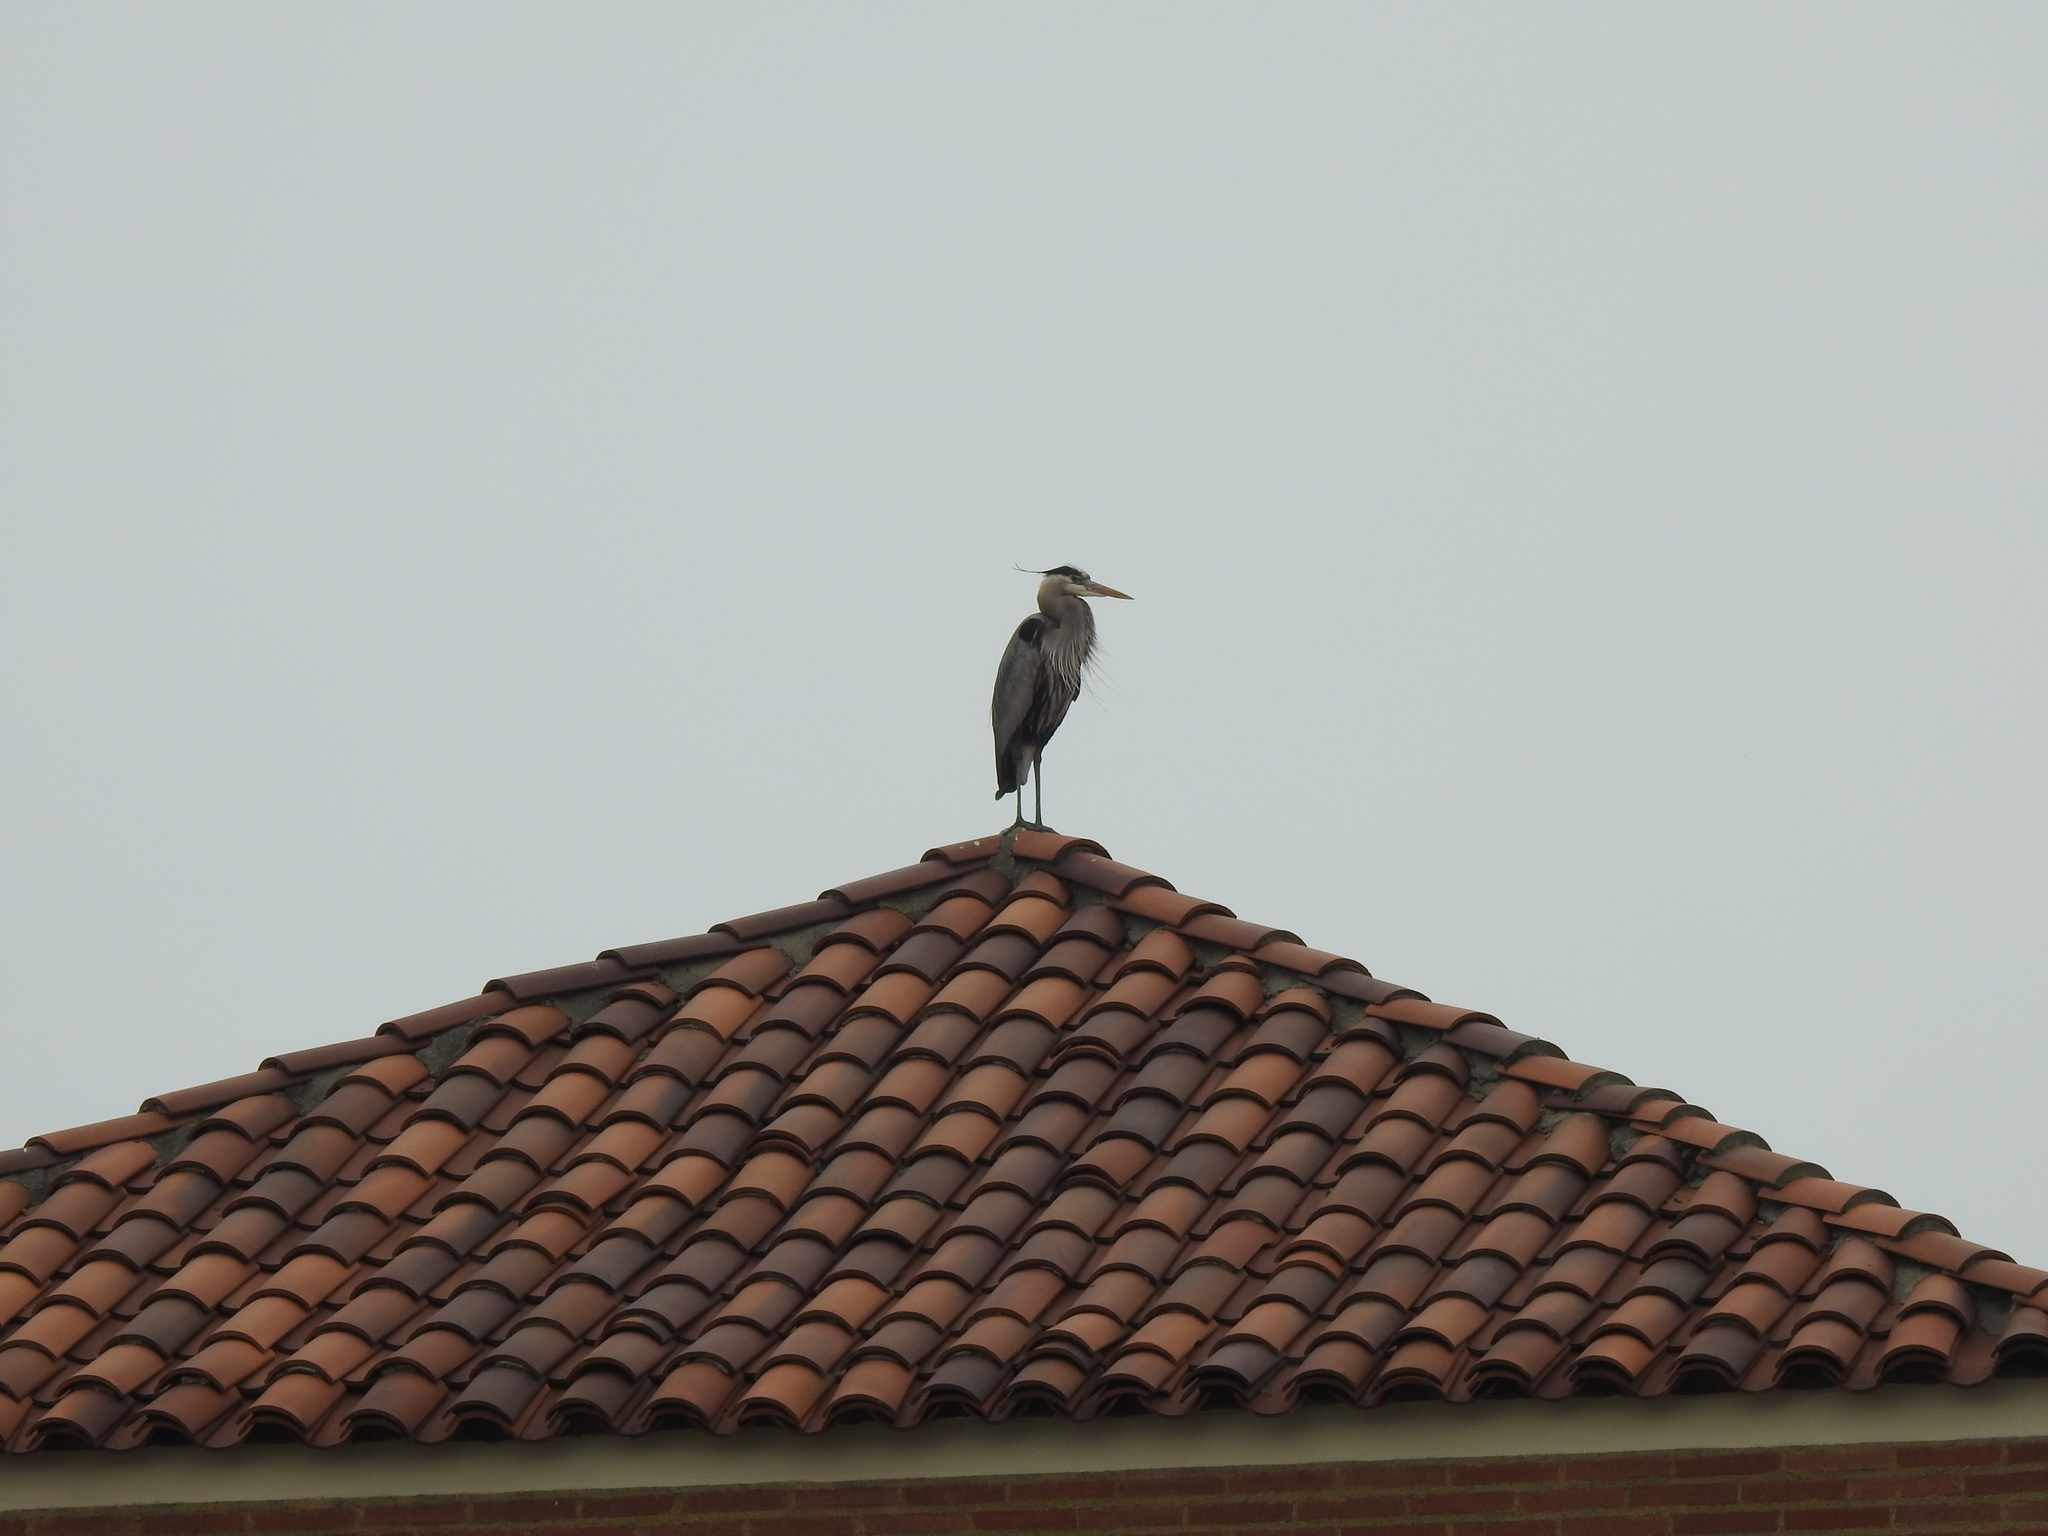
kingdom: Animalia
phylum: Chordata
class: Aves
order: Pelecaniformes
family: Ardeidae
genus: Ardea
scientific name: Ardea herodias
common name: Great blue heron
